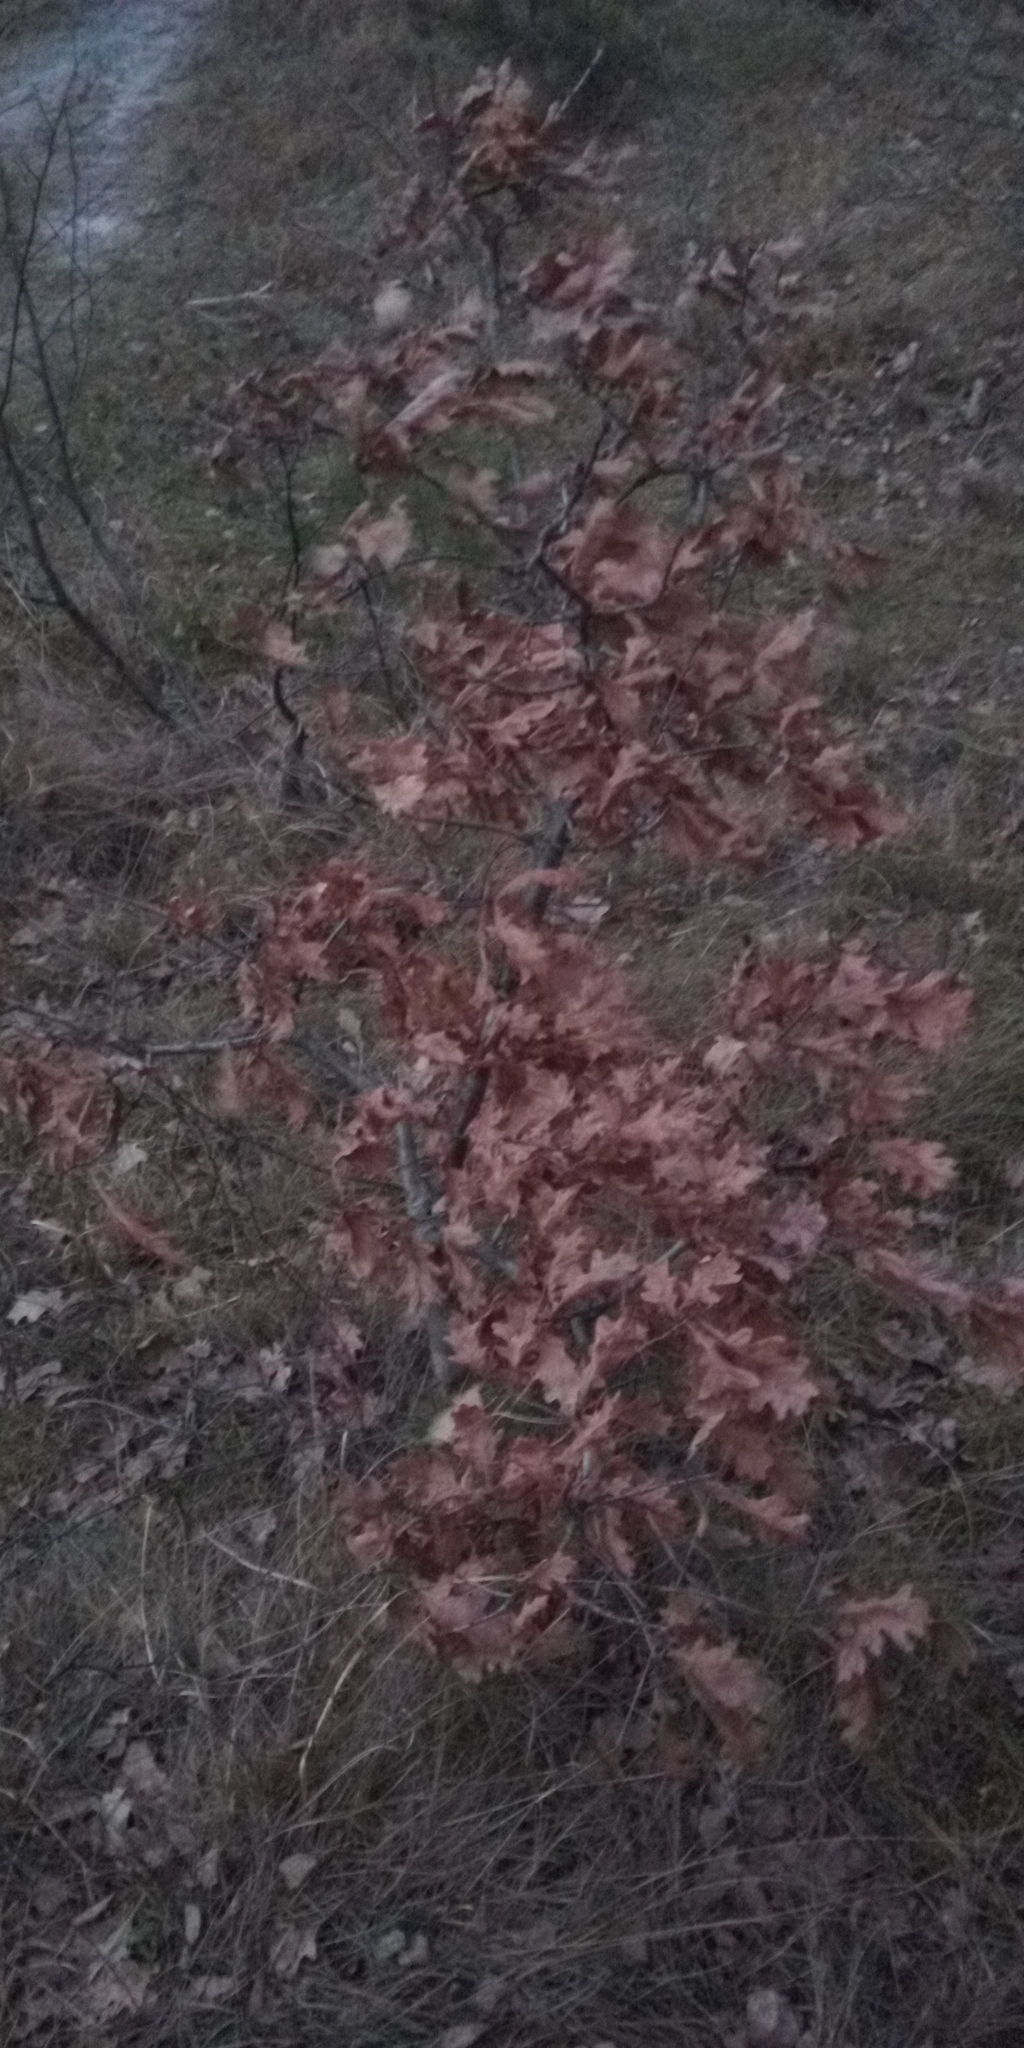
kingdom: Plantae
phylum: Tracheophyta
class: Magnoliopsida
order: Fagales
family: Fagaceae
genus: Quercus
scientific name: Quercus robur
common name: Pedunculate oak
